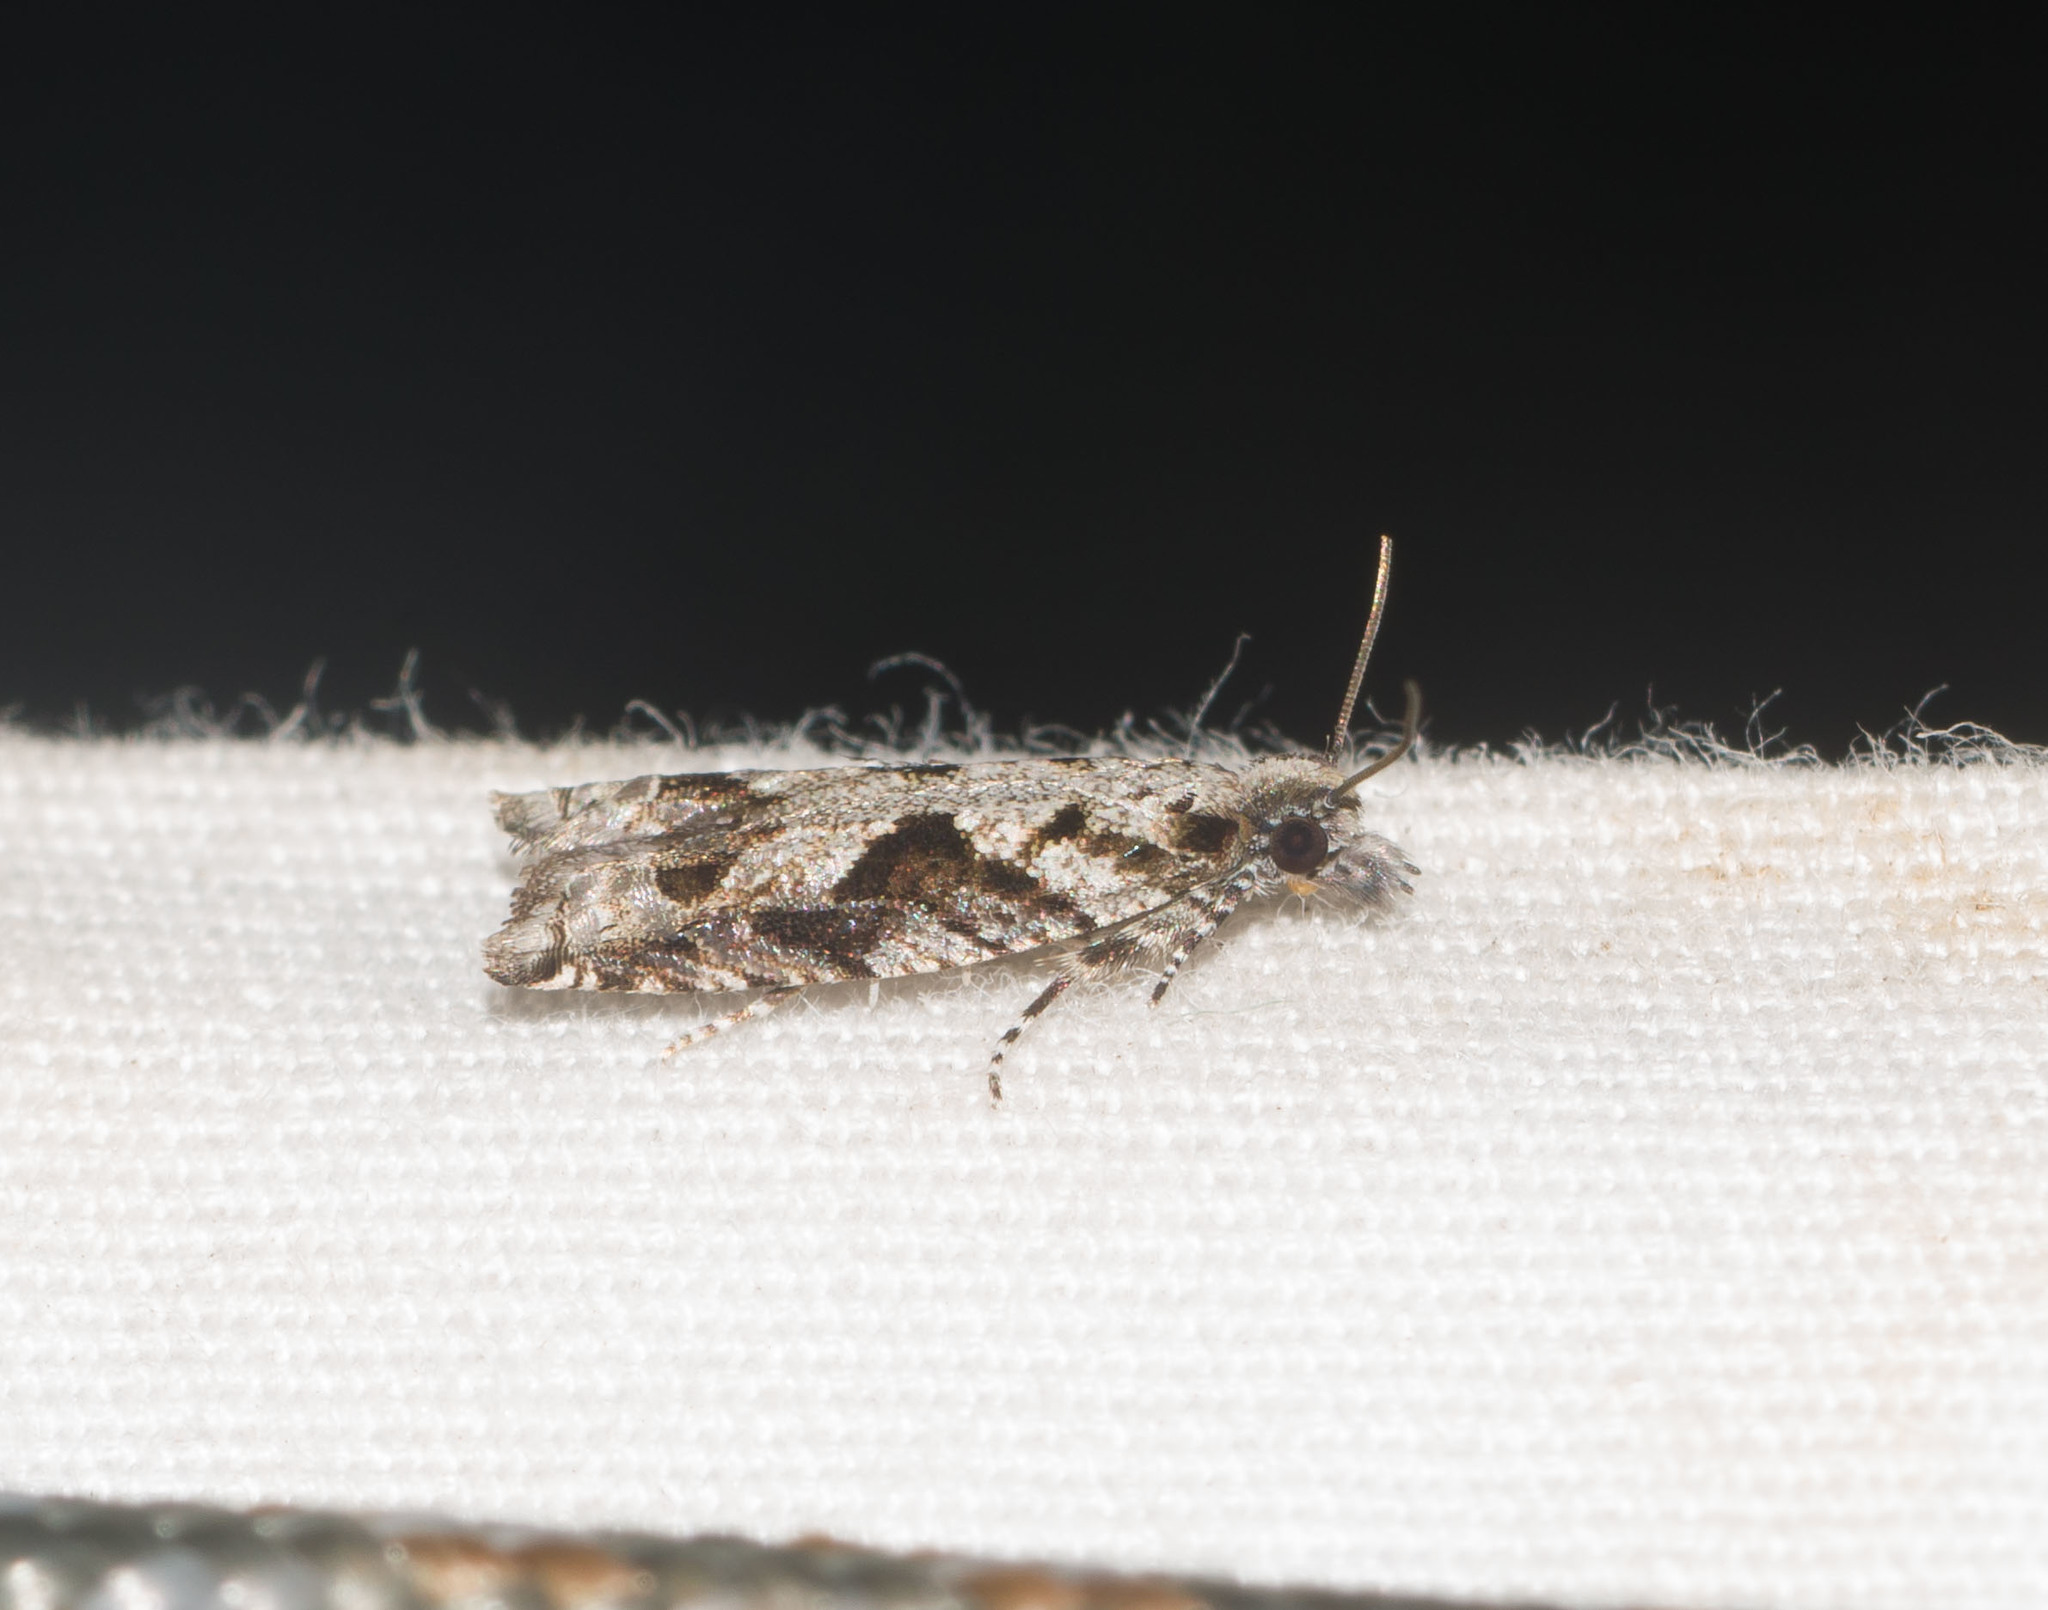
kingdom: Animalia
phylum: Arthropoda
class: Insecta
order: Lepidoptera
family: Tortricidae
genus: Eccoptocera
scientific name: Eccoptocera foetorivorans
